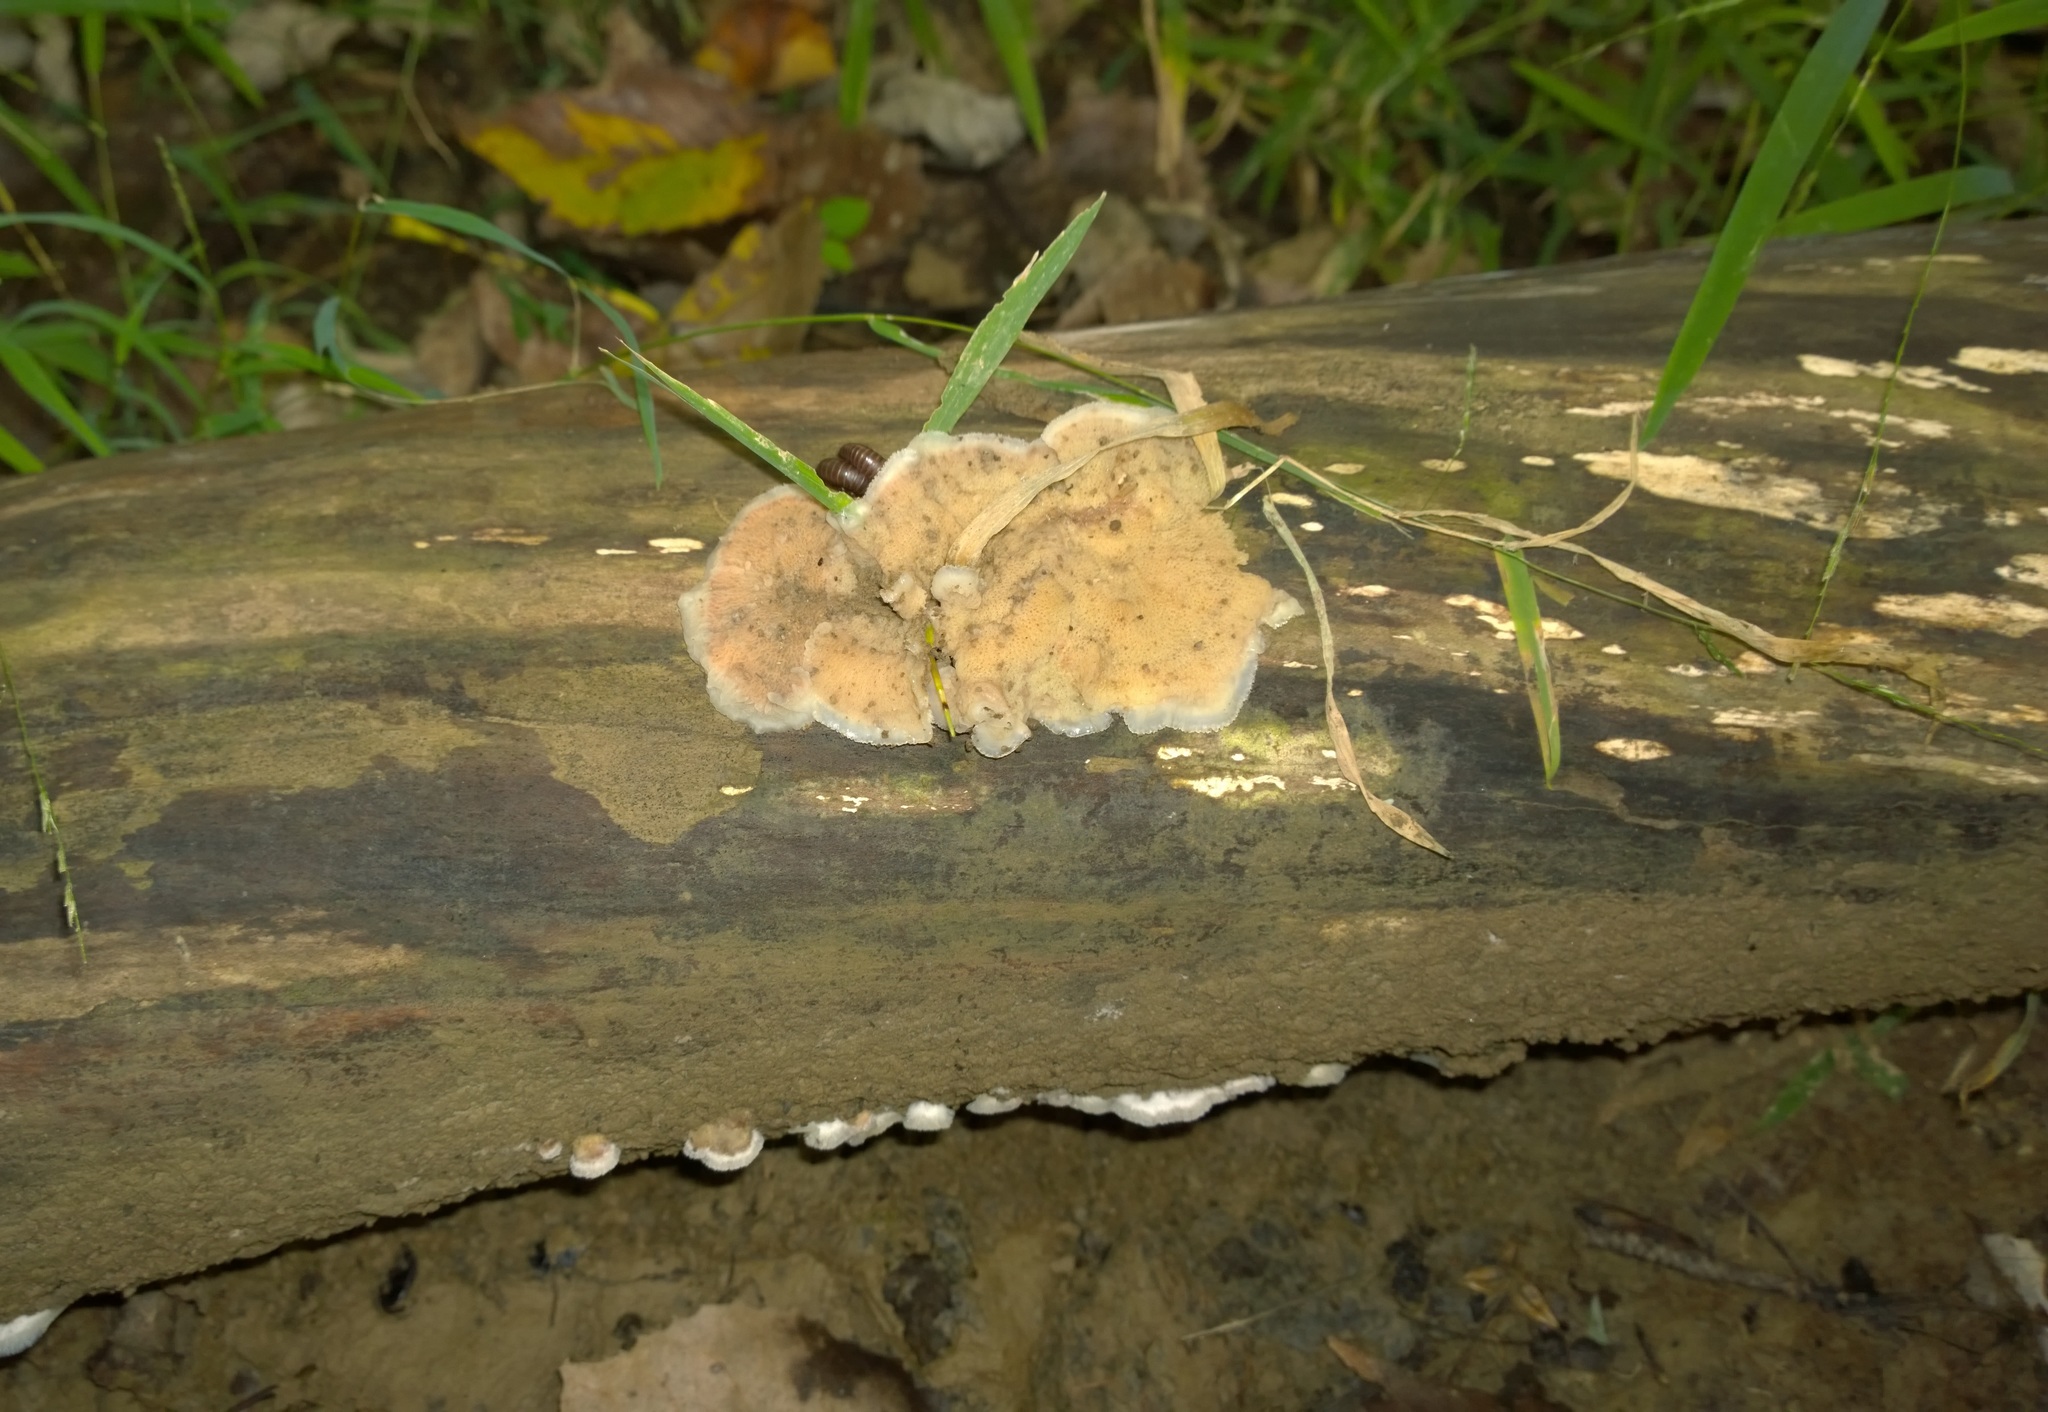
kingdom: Fungi
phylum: Basidiomycota
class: Agaricomycetes
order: Polyporales
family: Meruliaceae
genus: Phlebia
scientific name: Phlebia tremellosa
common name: Jelly rot
